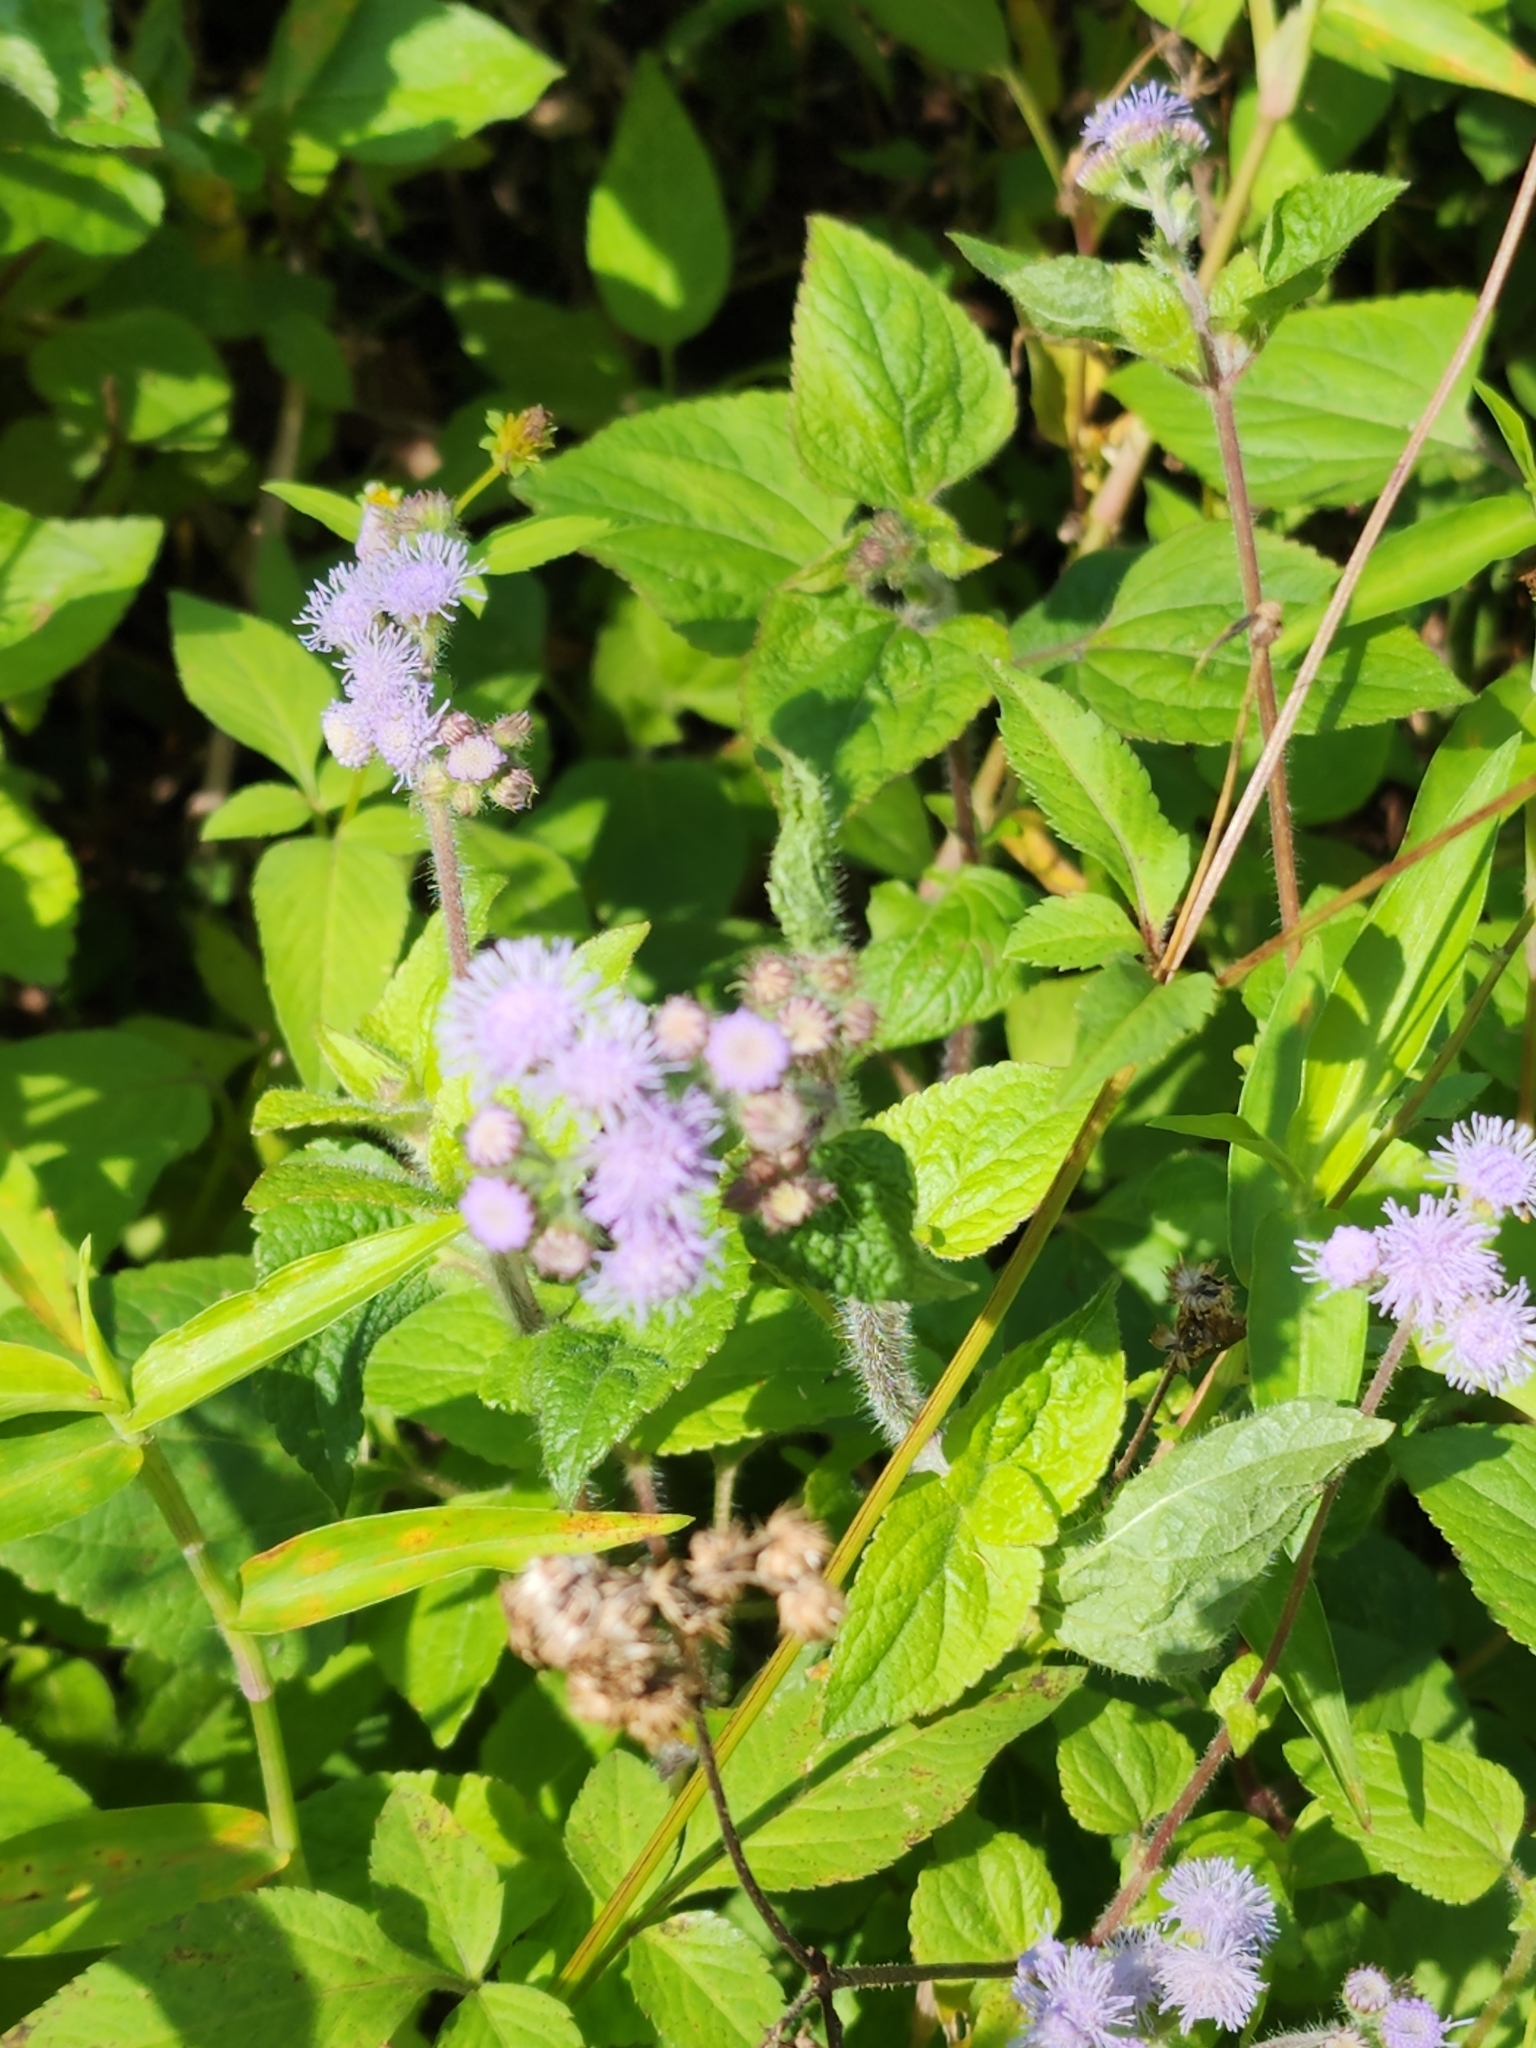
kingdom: Plantae
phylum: Tracheophyta
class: Magnoliopsida
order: Asterales
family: Asteraceae
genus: Ageratum
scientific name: Ageratum houstonianum
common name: Bluemink
